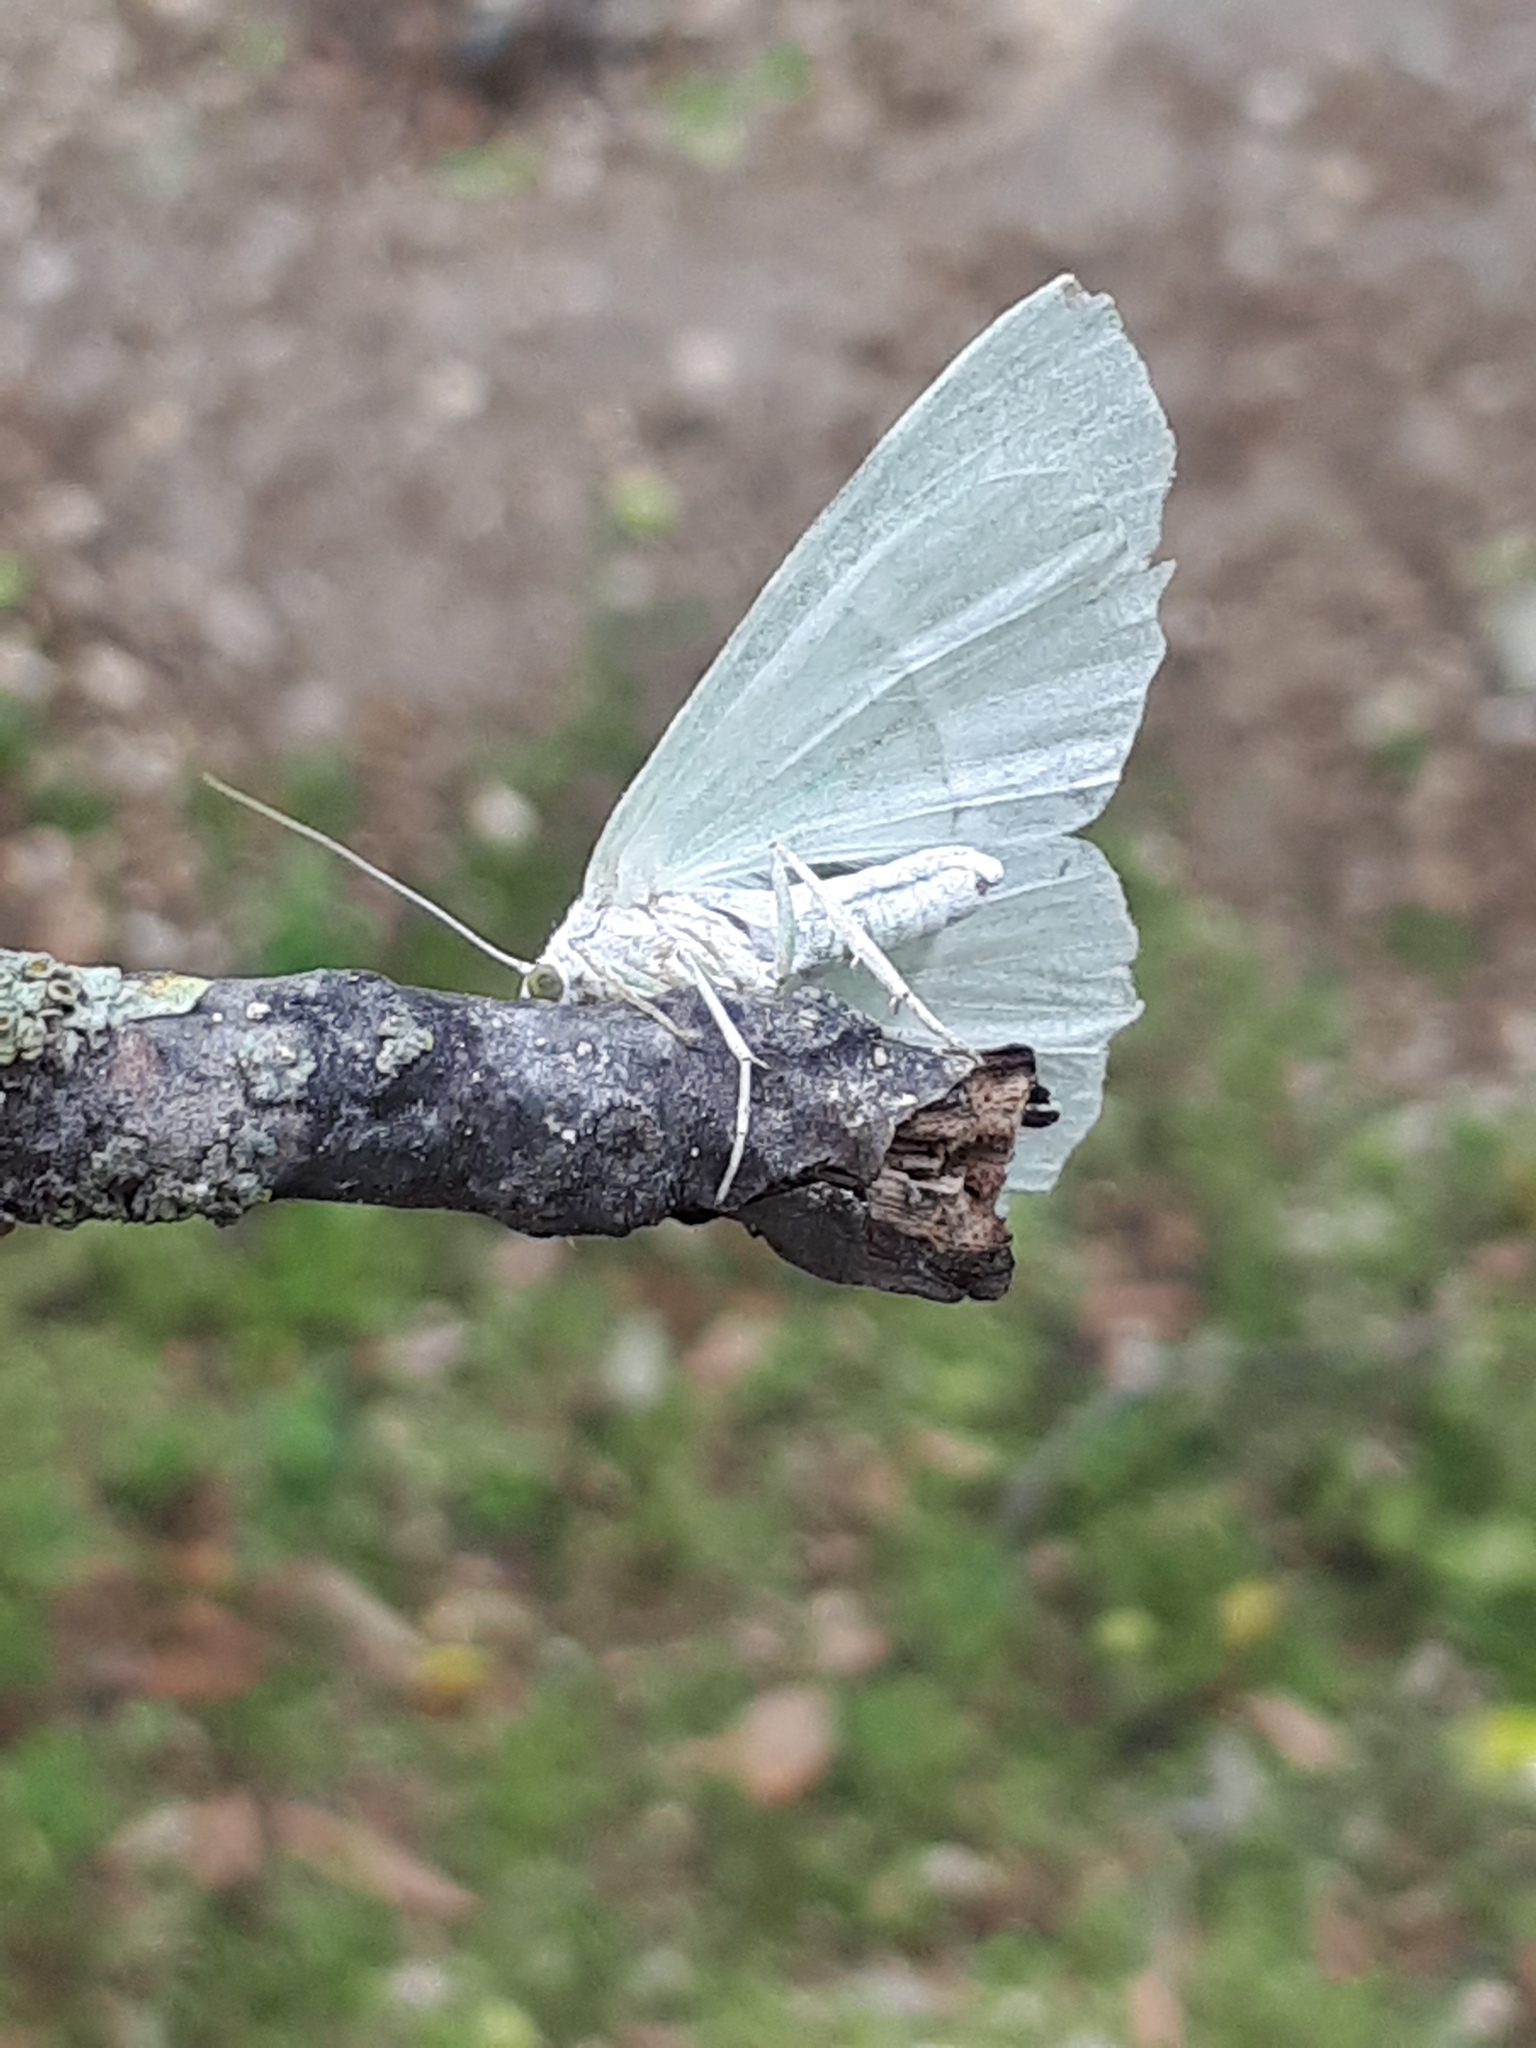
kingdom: Animalia
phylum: Arthropoda
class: Insecta
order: Lepidoptera
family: Geometridae
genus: Campaea
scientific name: Campaea margaritaria
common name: Light emerald
